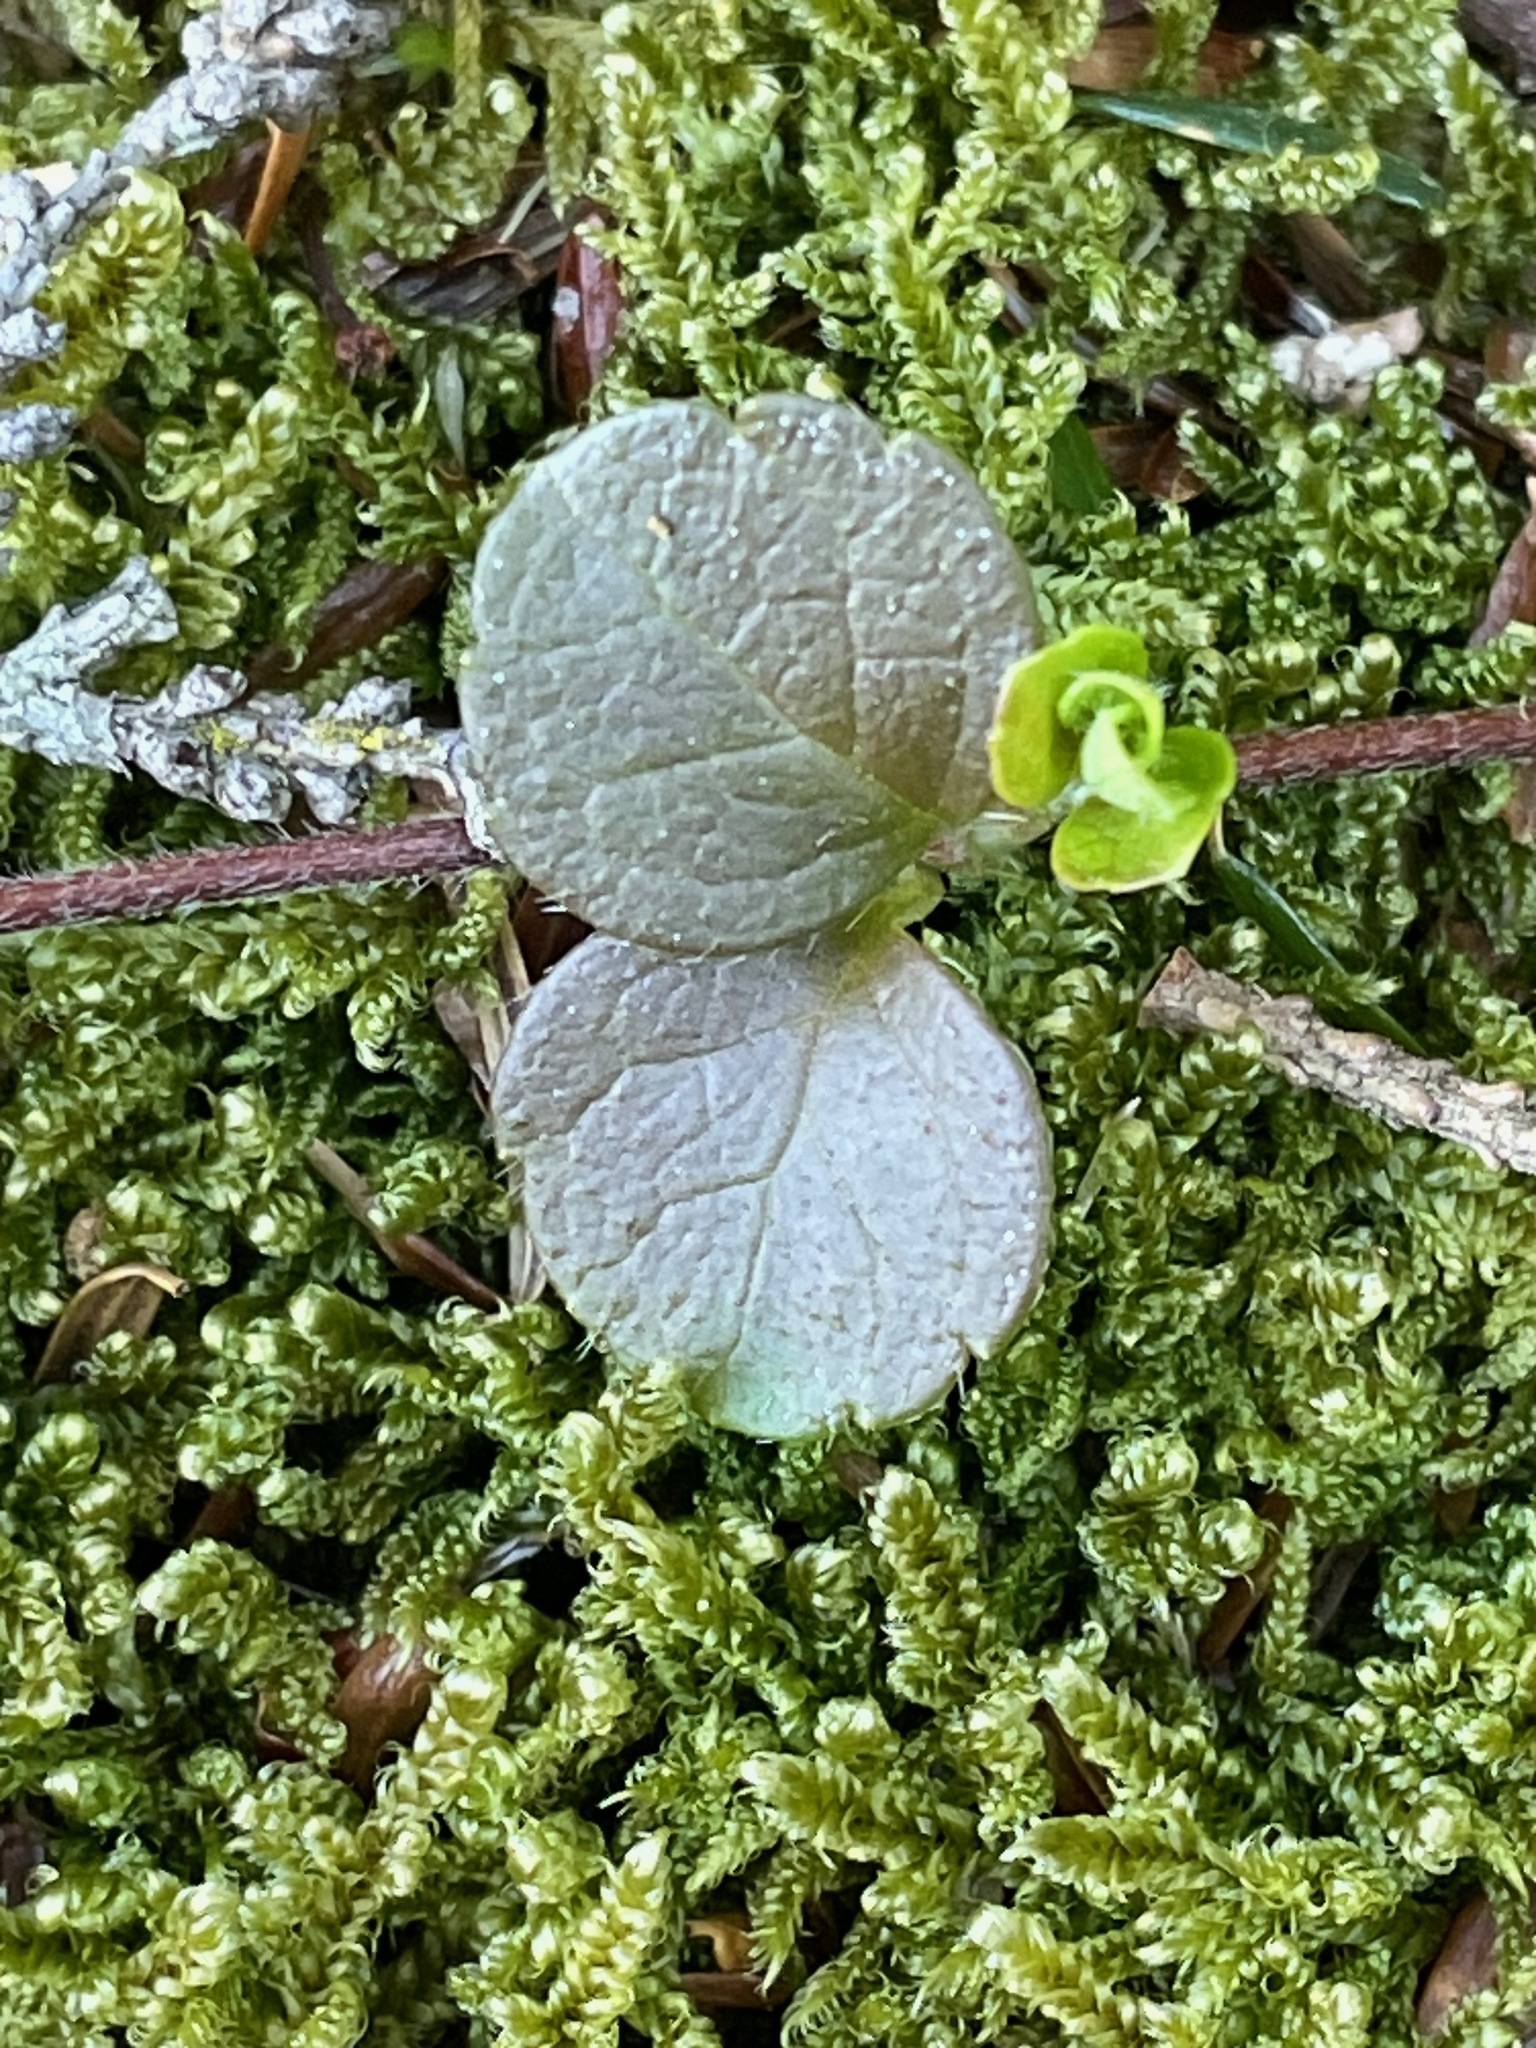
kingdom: Plantae
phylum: Tracheophyta
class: Magnoliopsida
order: Dipsacales
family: Caprifoliaceae
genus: Linnaea
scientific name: Linnaea borealis
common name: Twinflower
